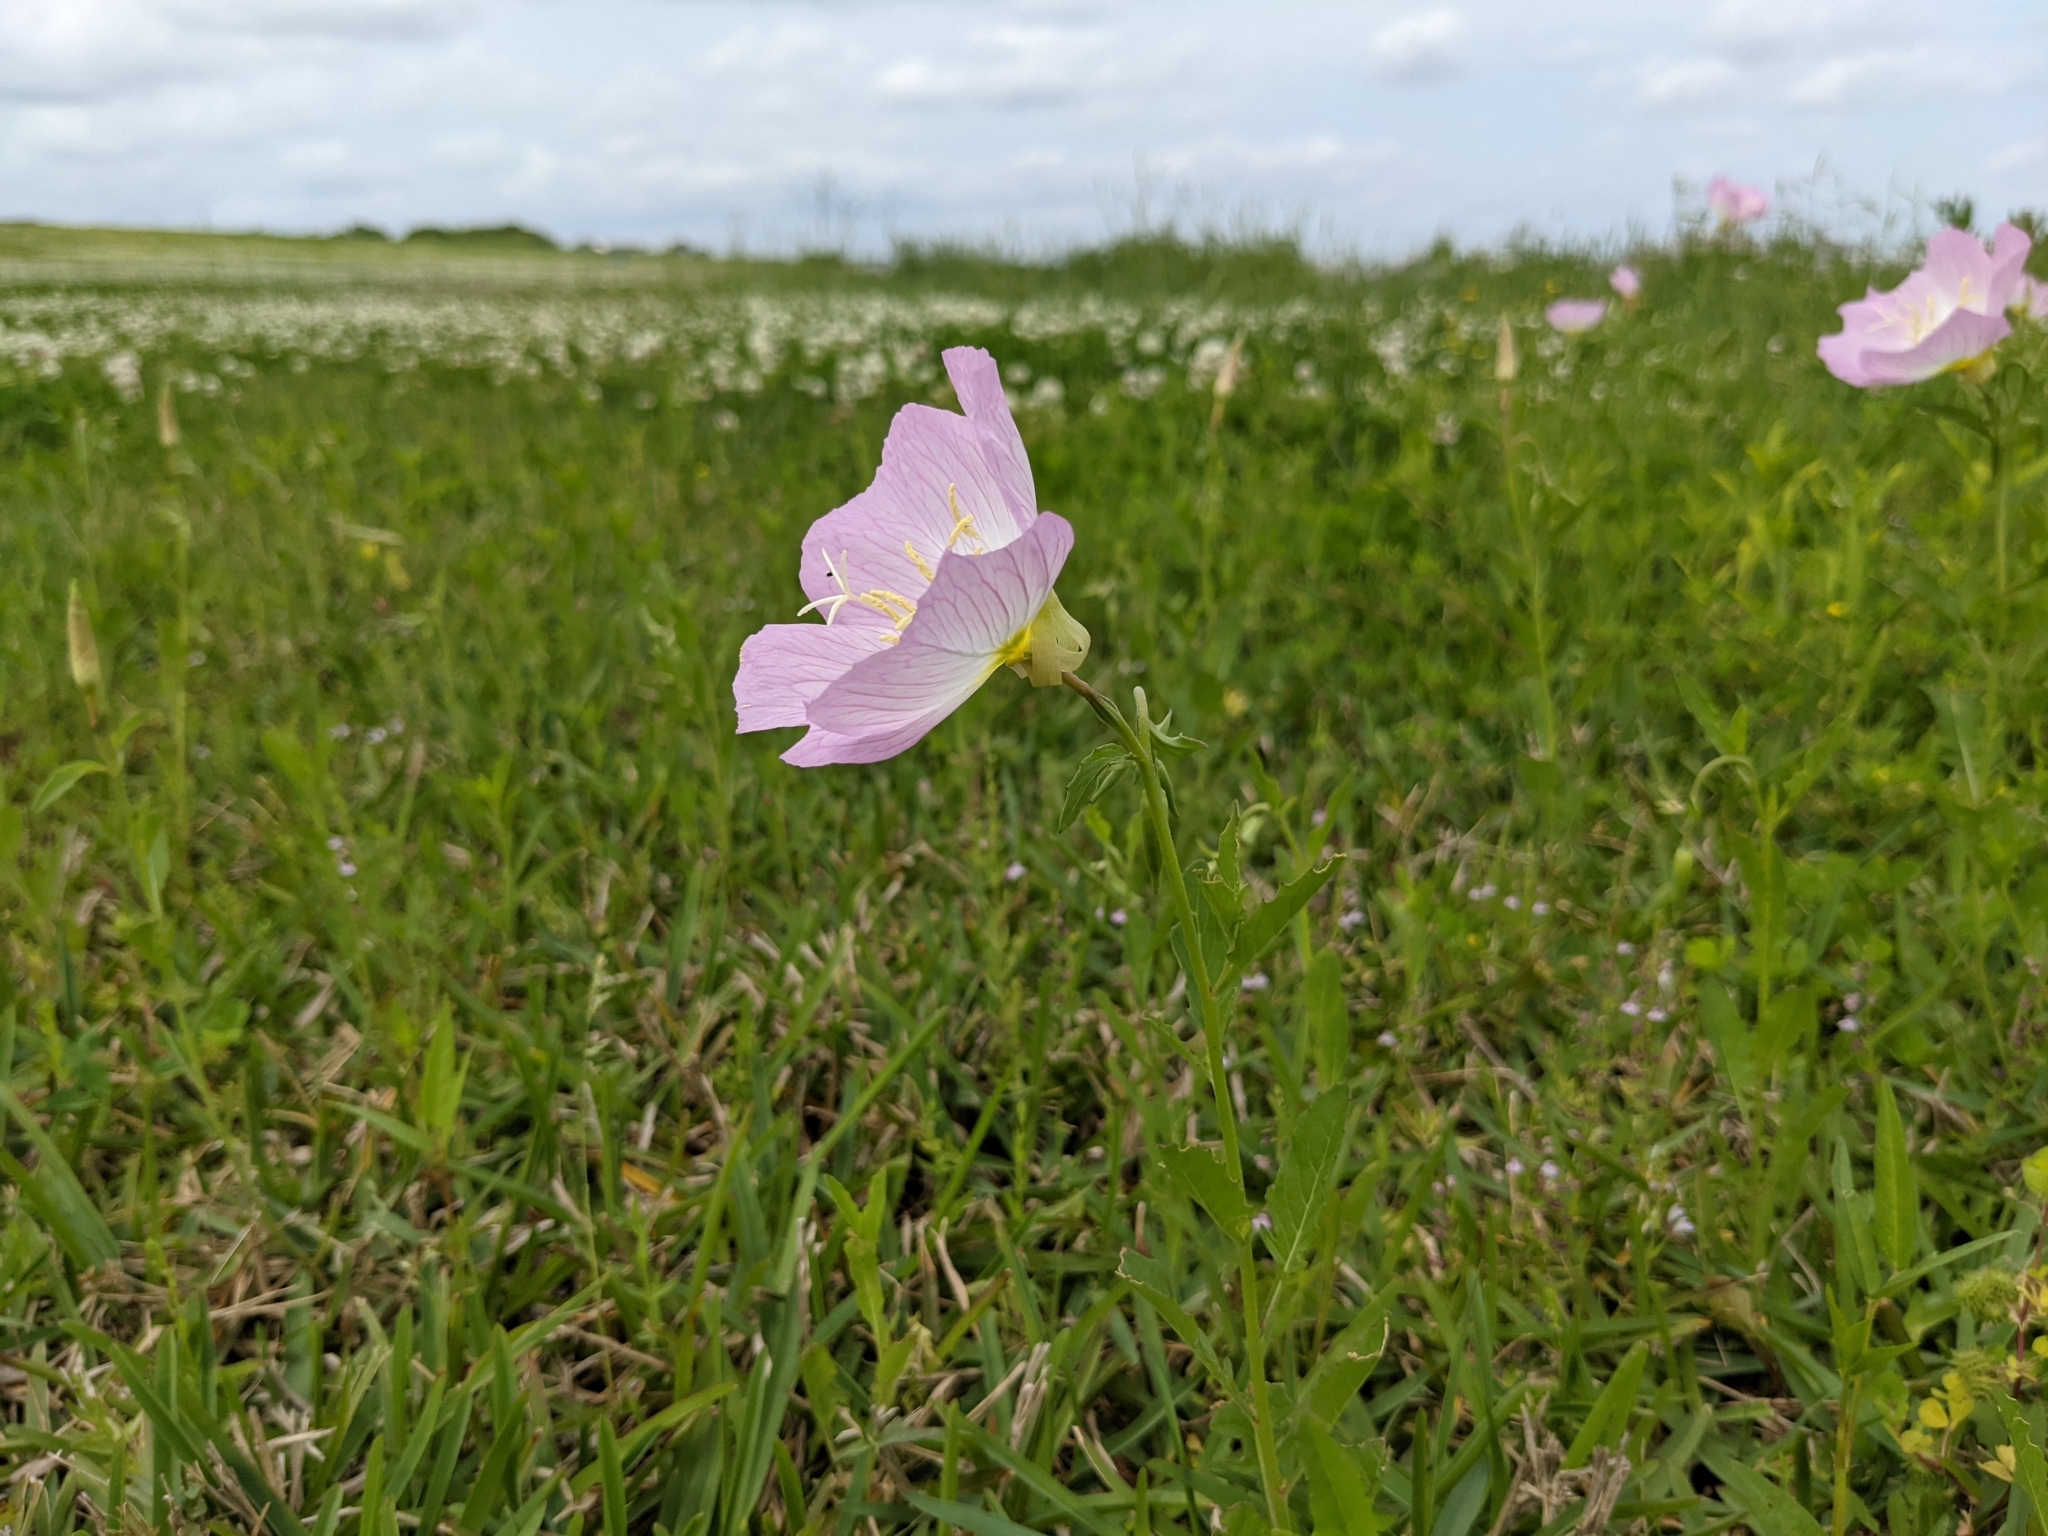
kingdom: Plantae
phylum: Tracheophyta
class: Magnoliopsida
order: Myrtales
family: Onagraceae
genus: Oenothera
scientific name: Oenothera speciosa
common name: White evening-primrose
